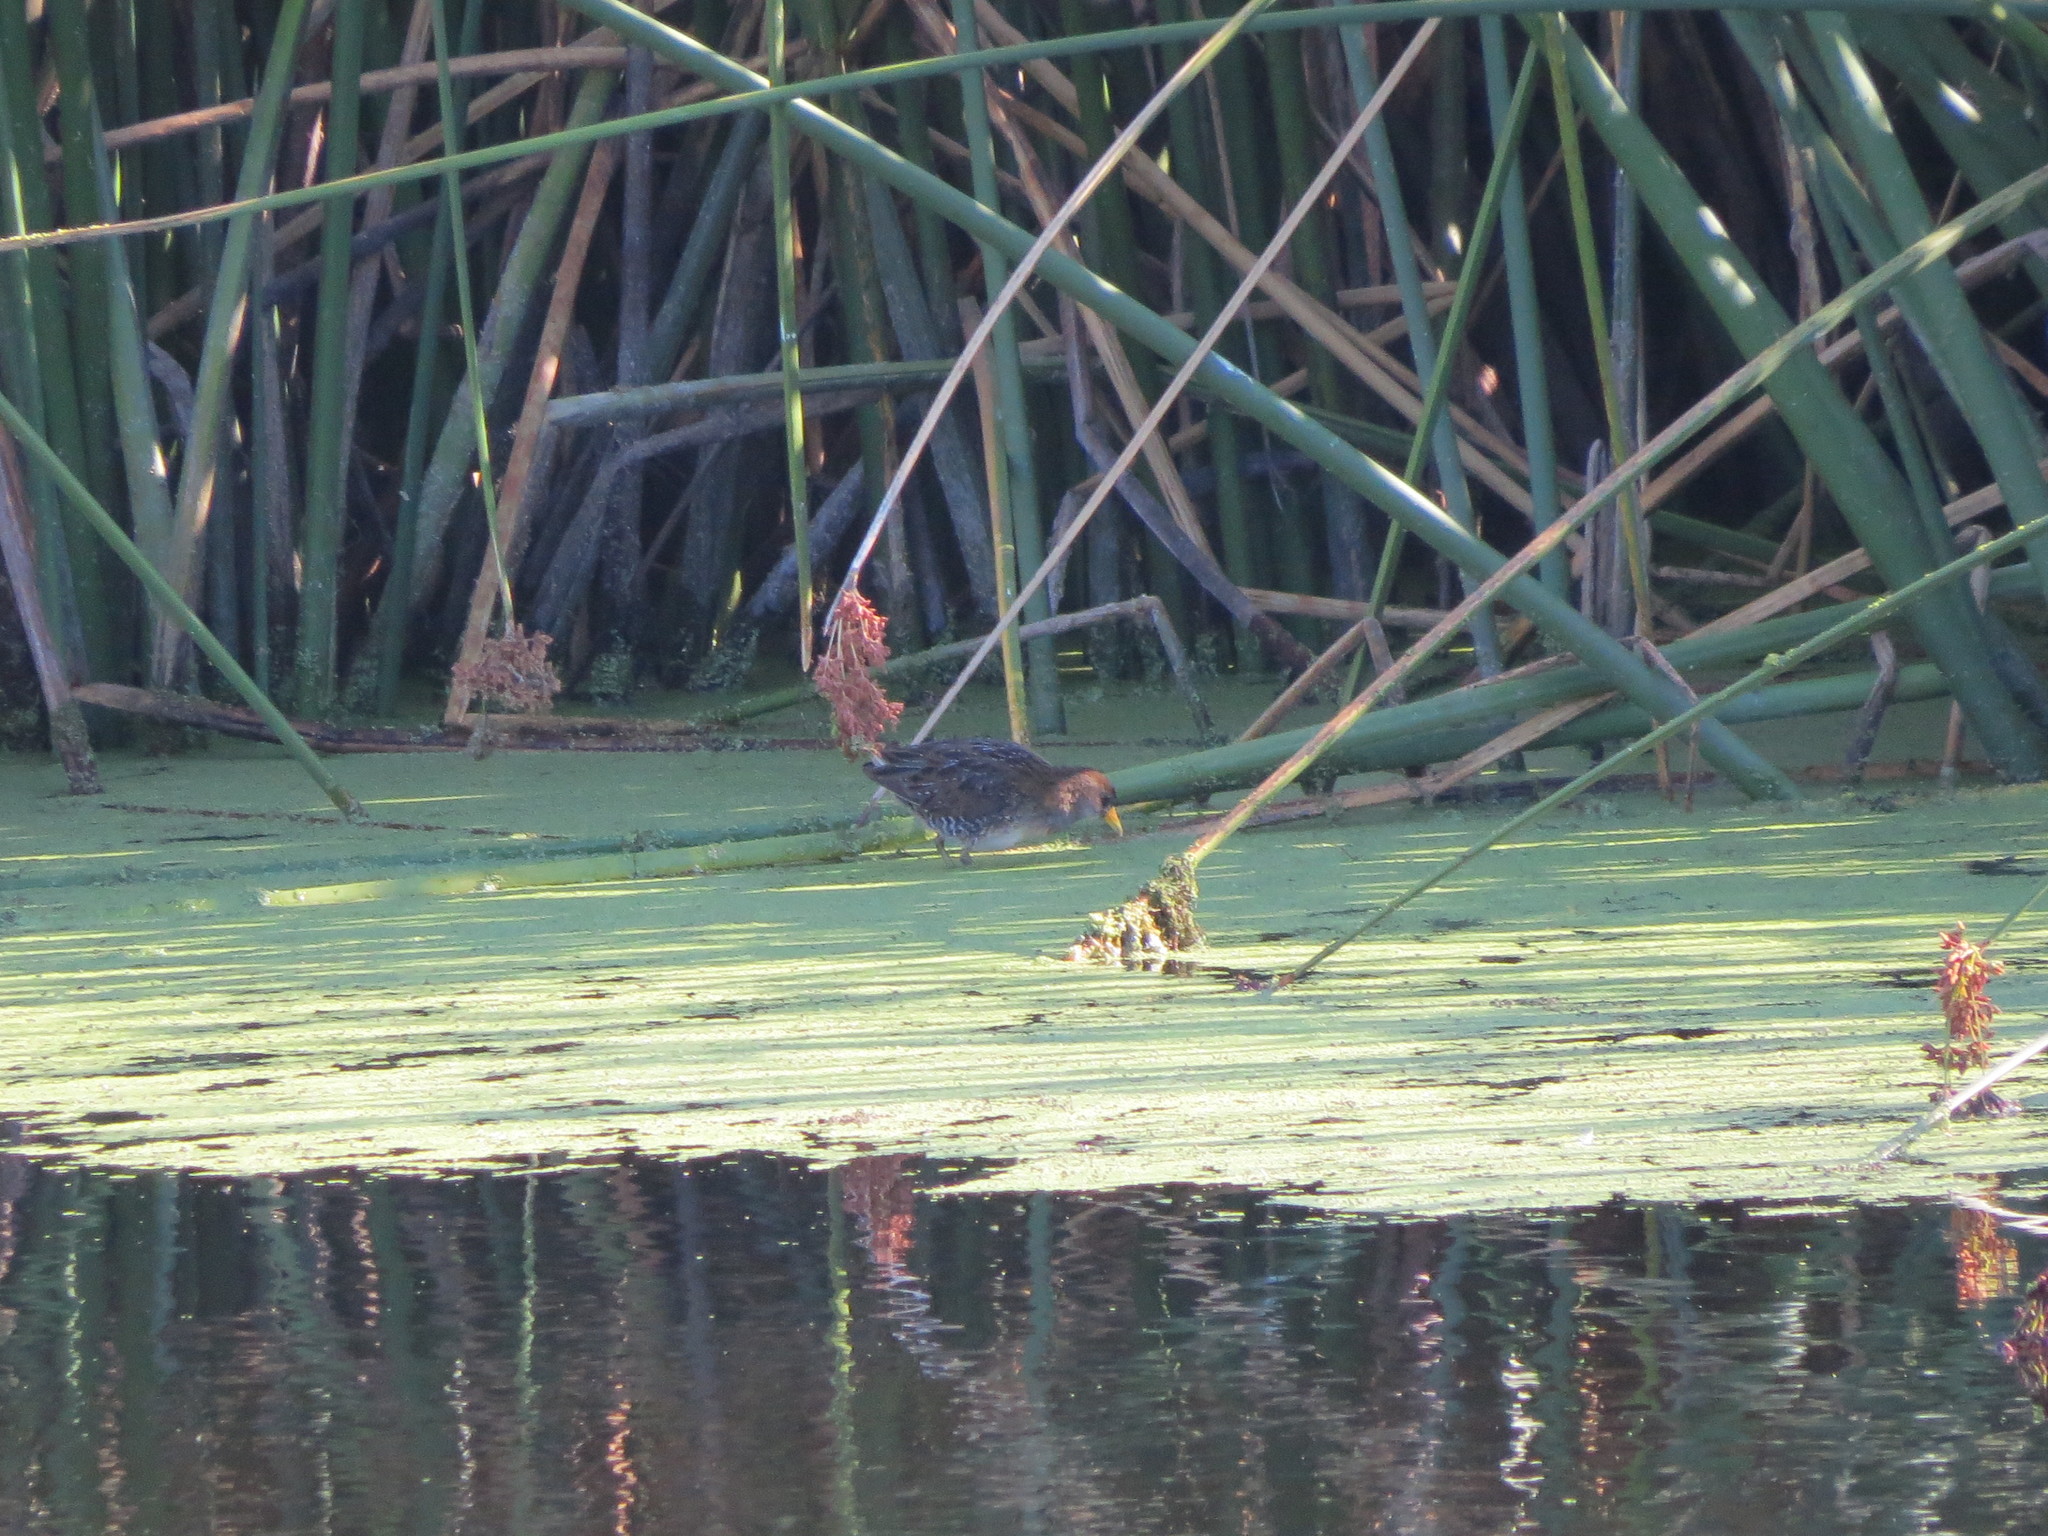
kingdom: Animalia
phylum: Chordata
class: Aves
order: Gruiformes
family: Rallidae
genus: Porzana
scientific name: Porzana carolina
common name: Sora
